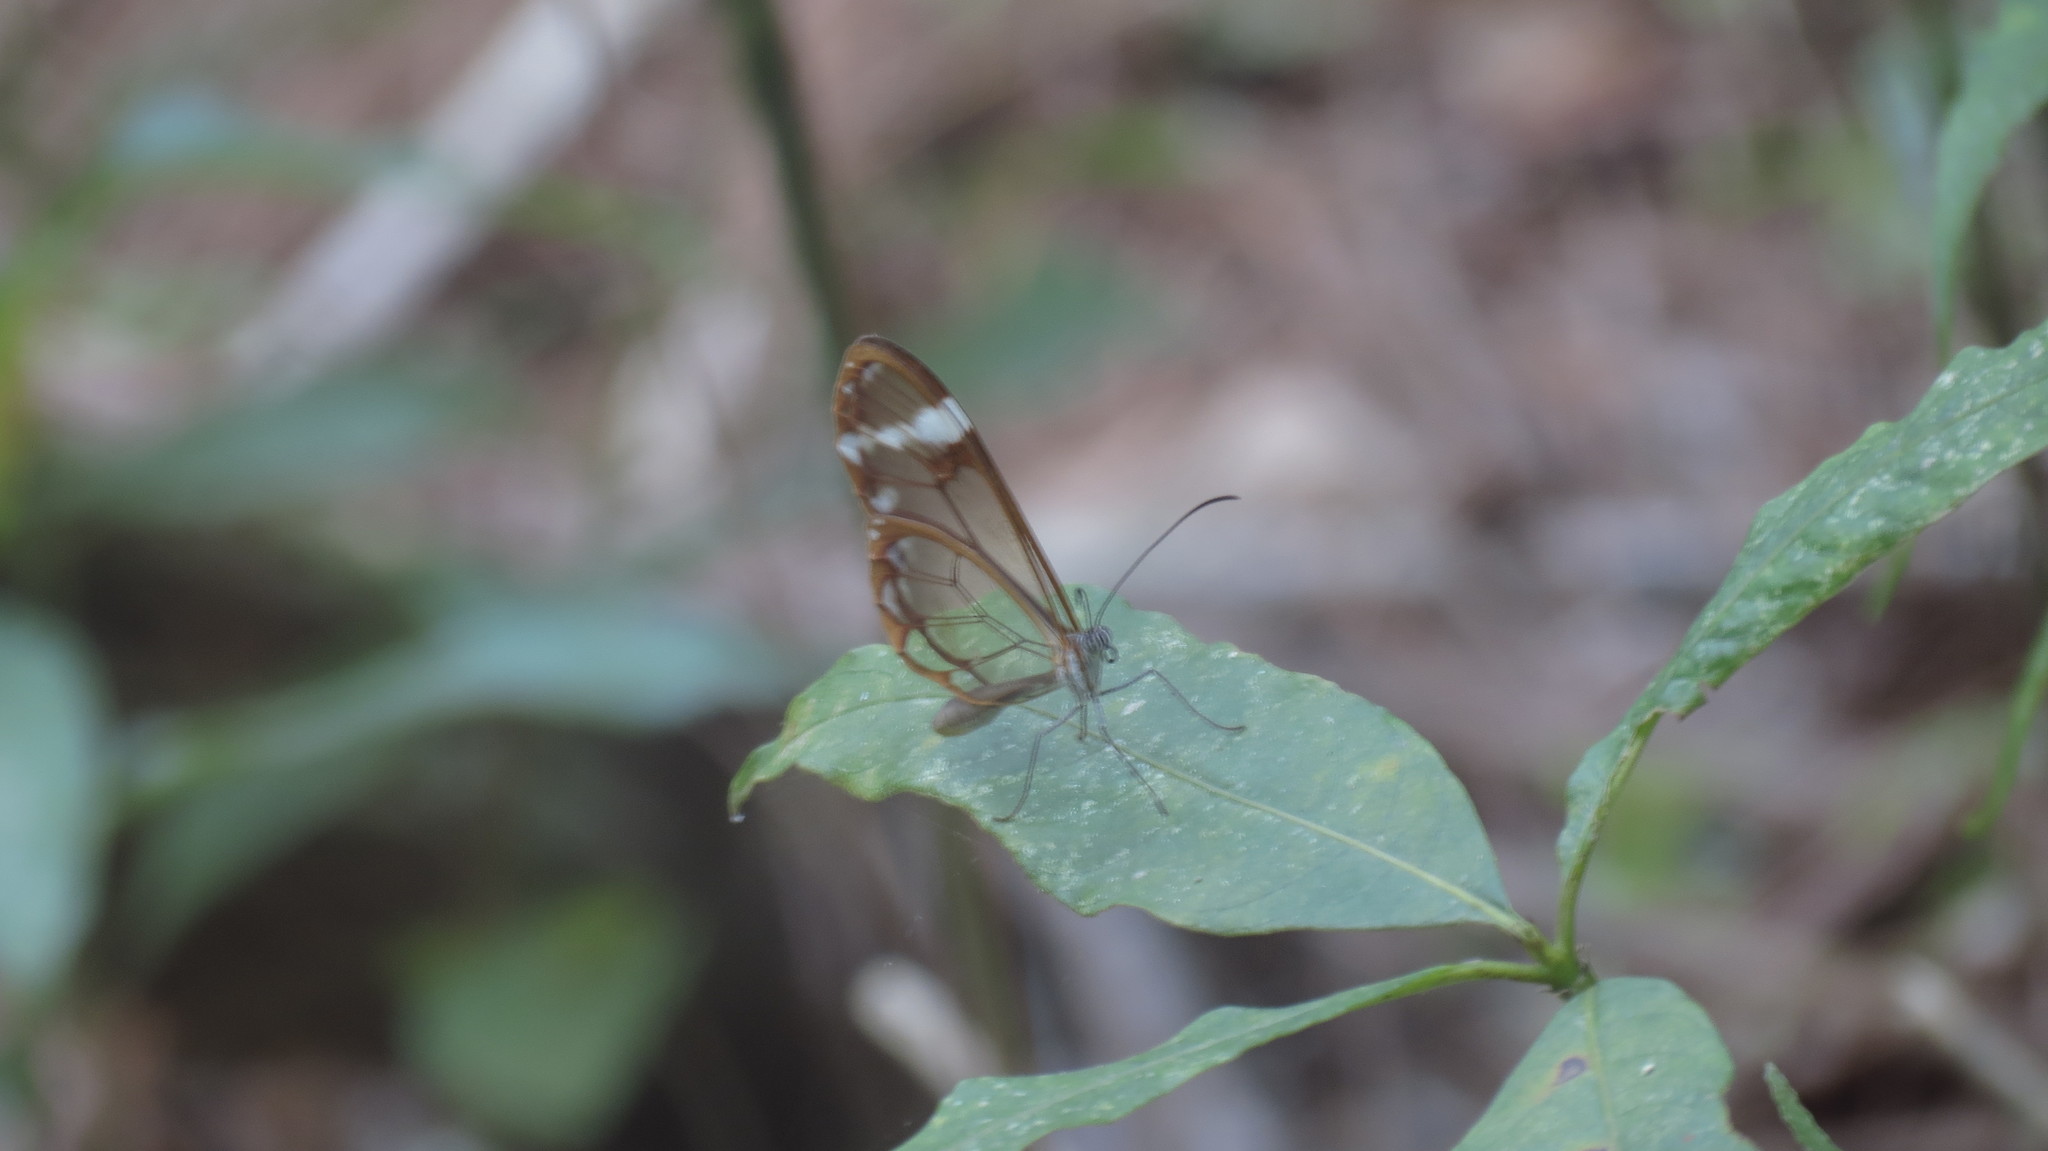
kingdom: Animalia
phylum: Arthropoda
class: Insecta
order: Lepidoptera
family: Nymphalidae
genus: Greta
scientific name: Greta annette
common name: White-spotted clearwing
